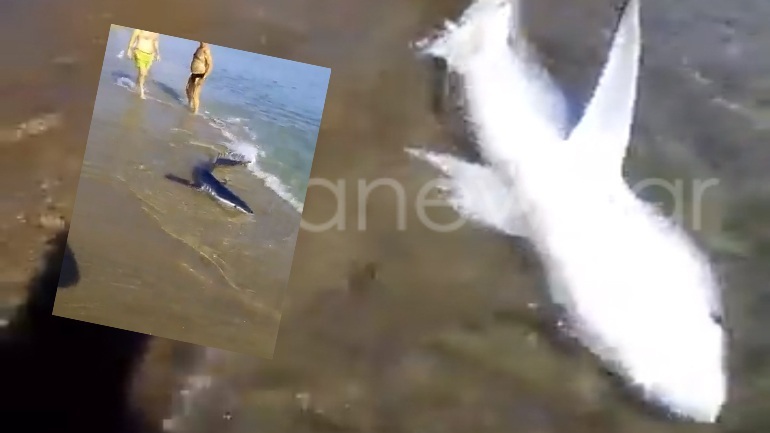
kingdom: Animalia
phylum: Chordata
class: Elasmobranchii
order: Carcharhiniformes
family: Carcharhinidae
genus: Prionace
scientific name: Prionace glauca
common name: Blue shark
